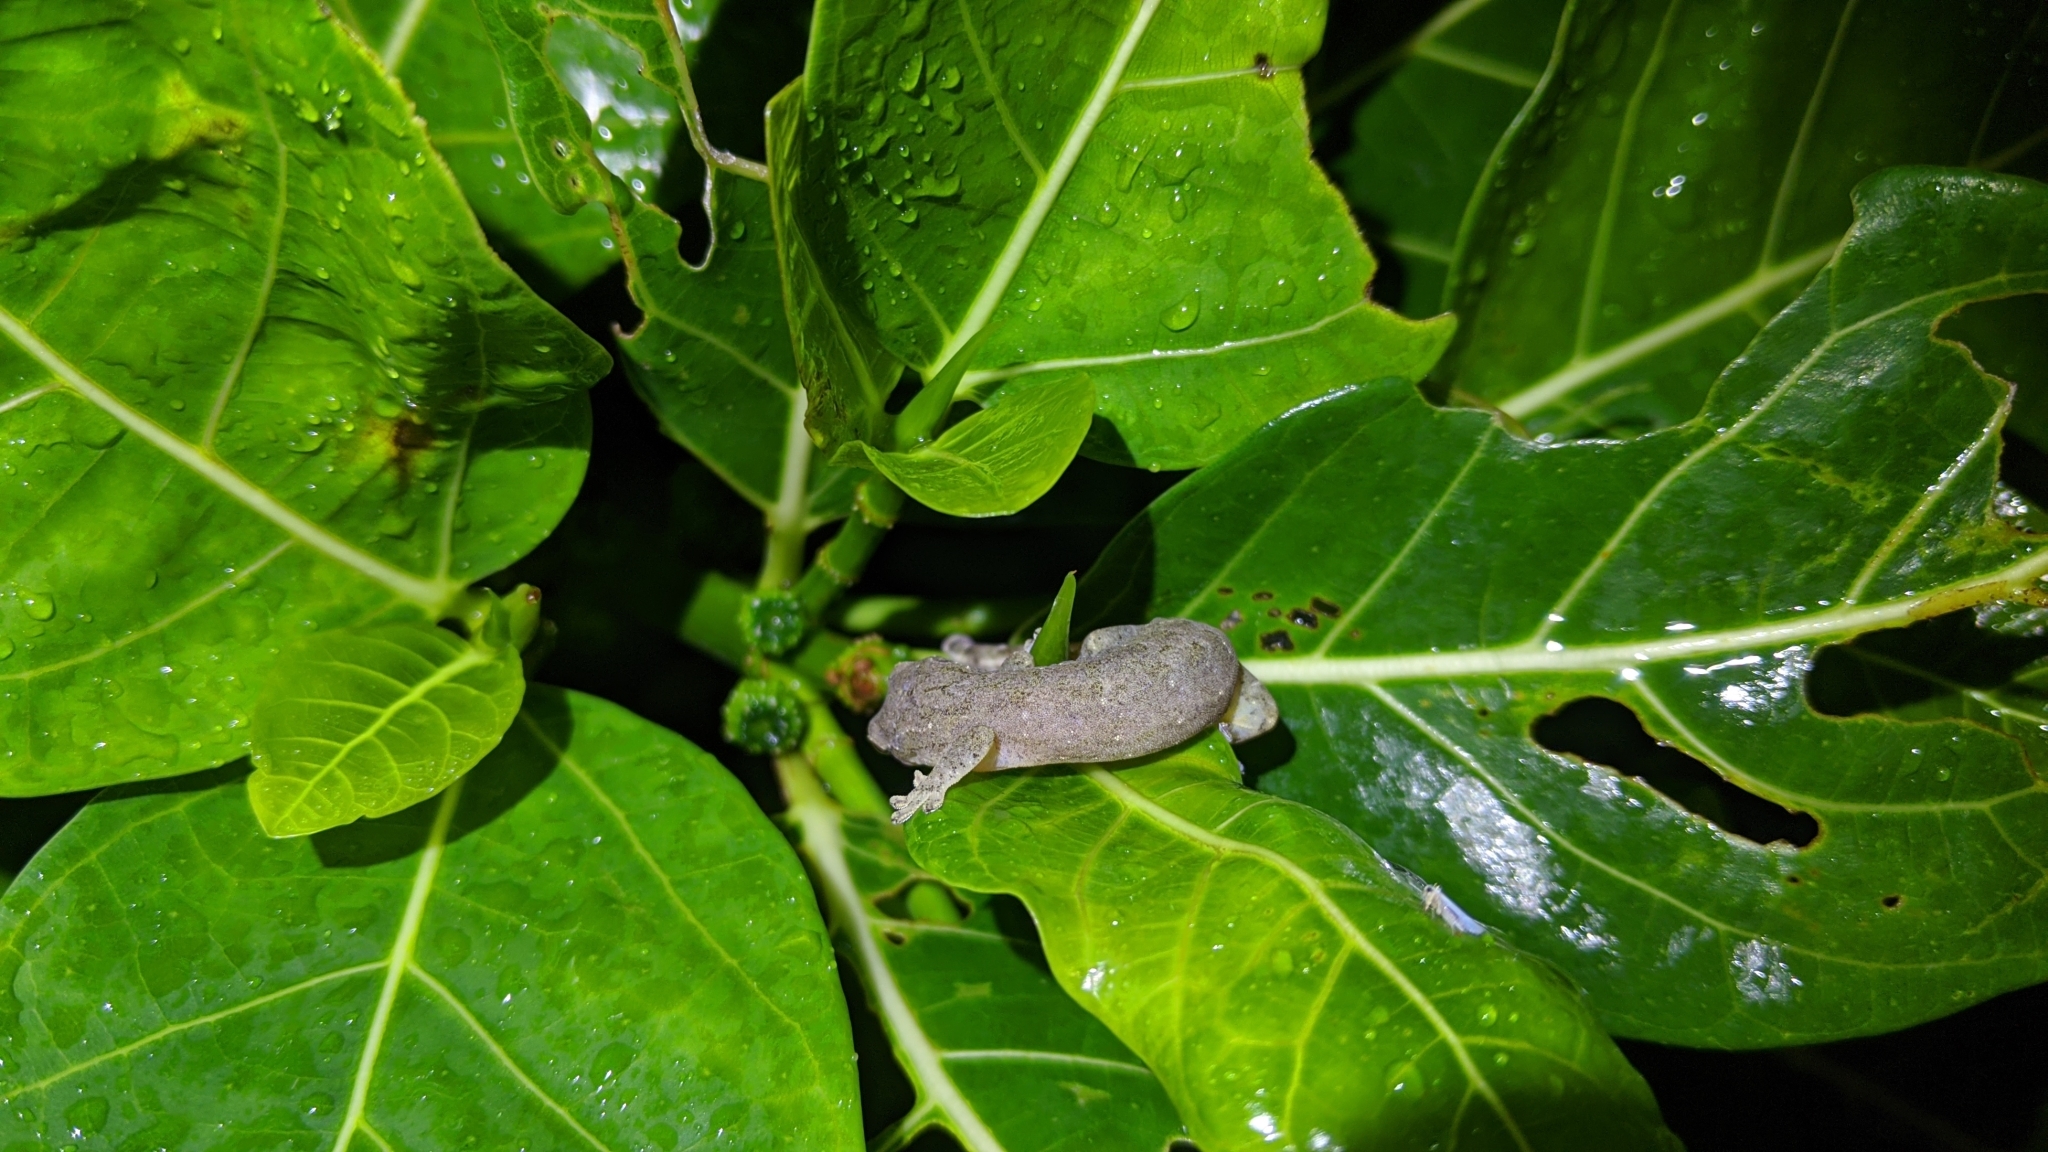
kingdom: Animalia
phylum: Chordata
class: Squamata
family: Gekkonidae
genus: Lepidodactylus
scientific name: Lepidodactylus yami
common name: Lanyu scaly-toed gecko
